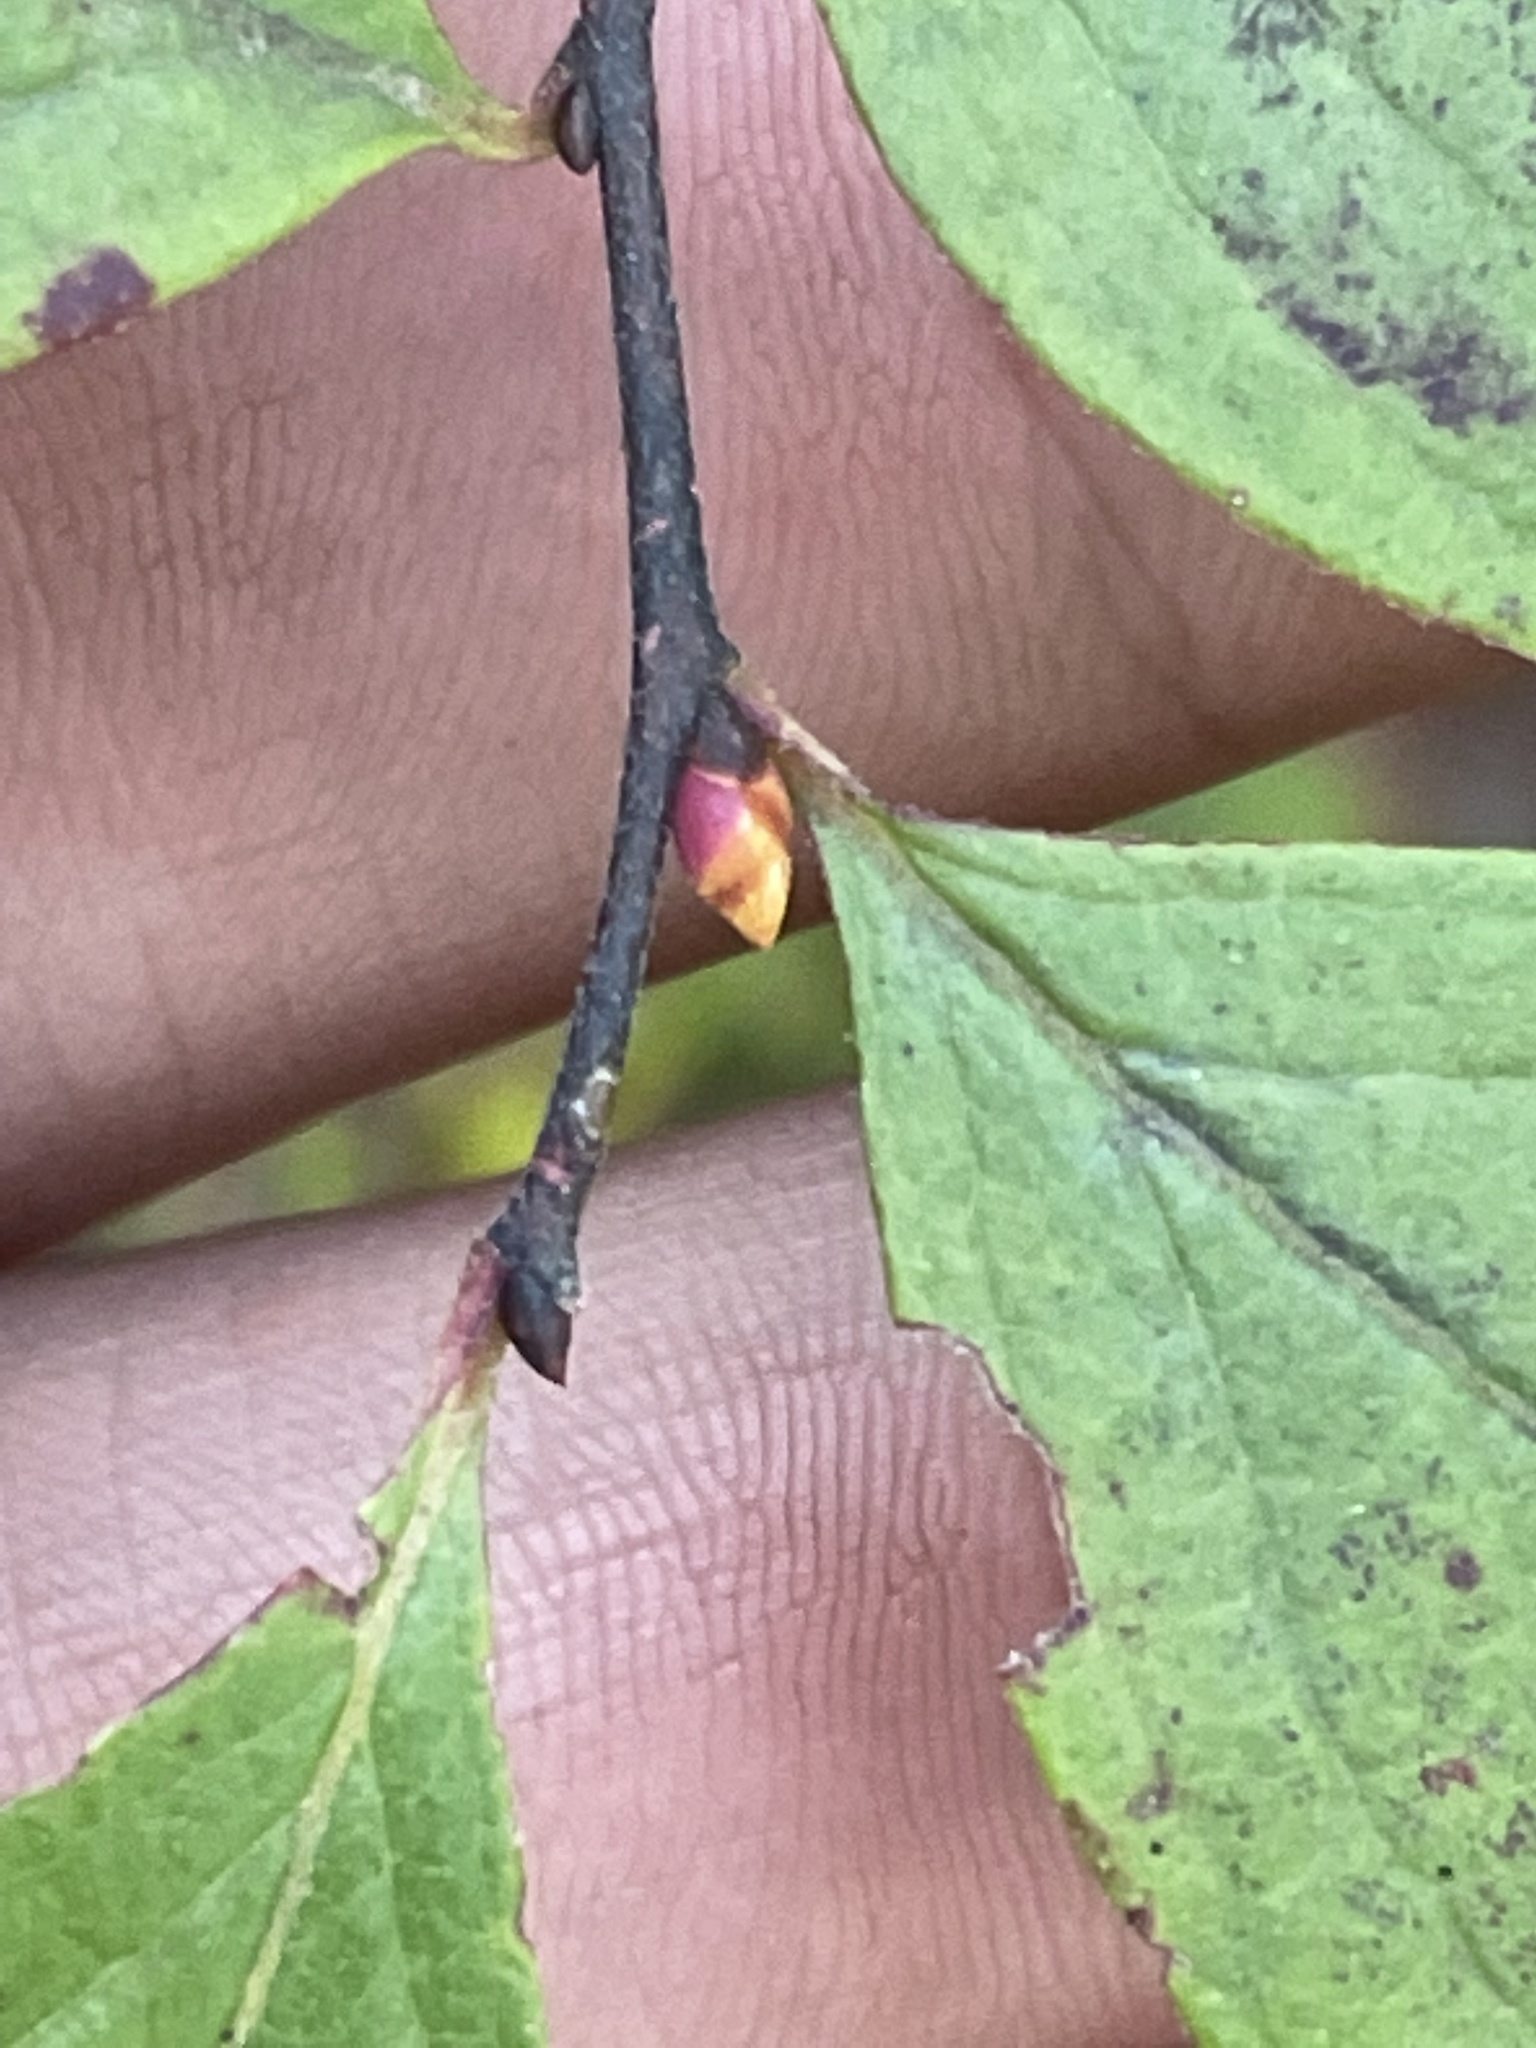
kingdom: Plantae
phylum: Tracheophyta
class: Magnoliopsida
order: Ericales
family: Ericaceae
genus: Gaylussacia
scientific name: Gaylussacia baccata
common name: Black huckleberry
